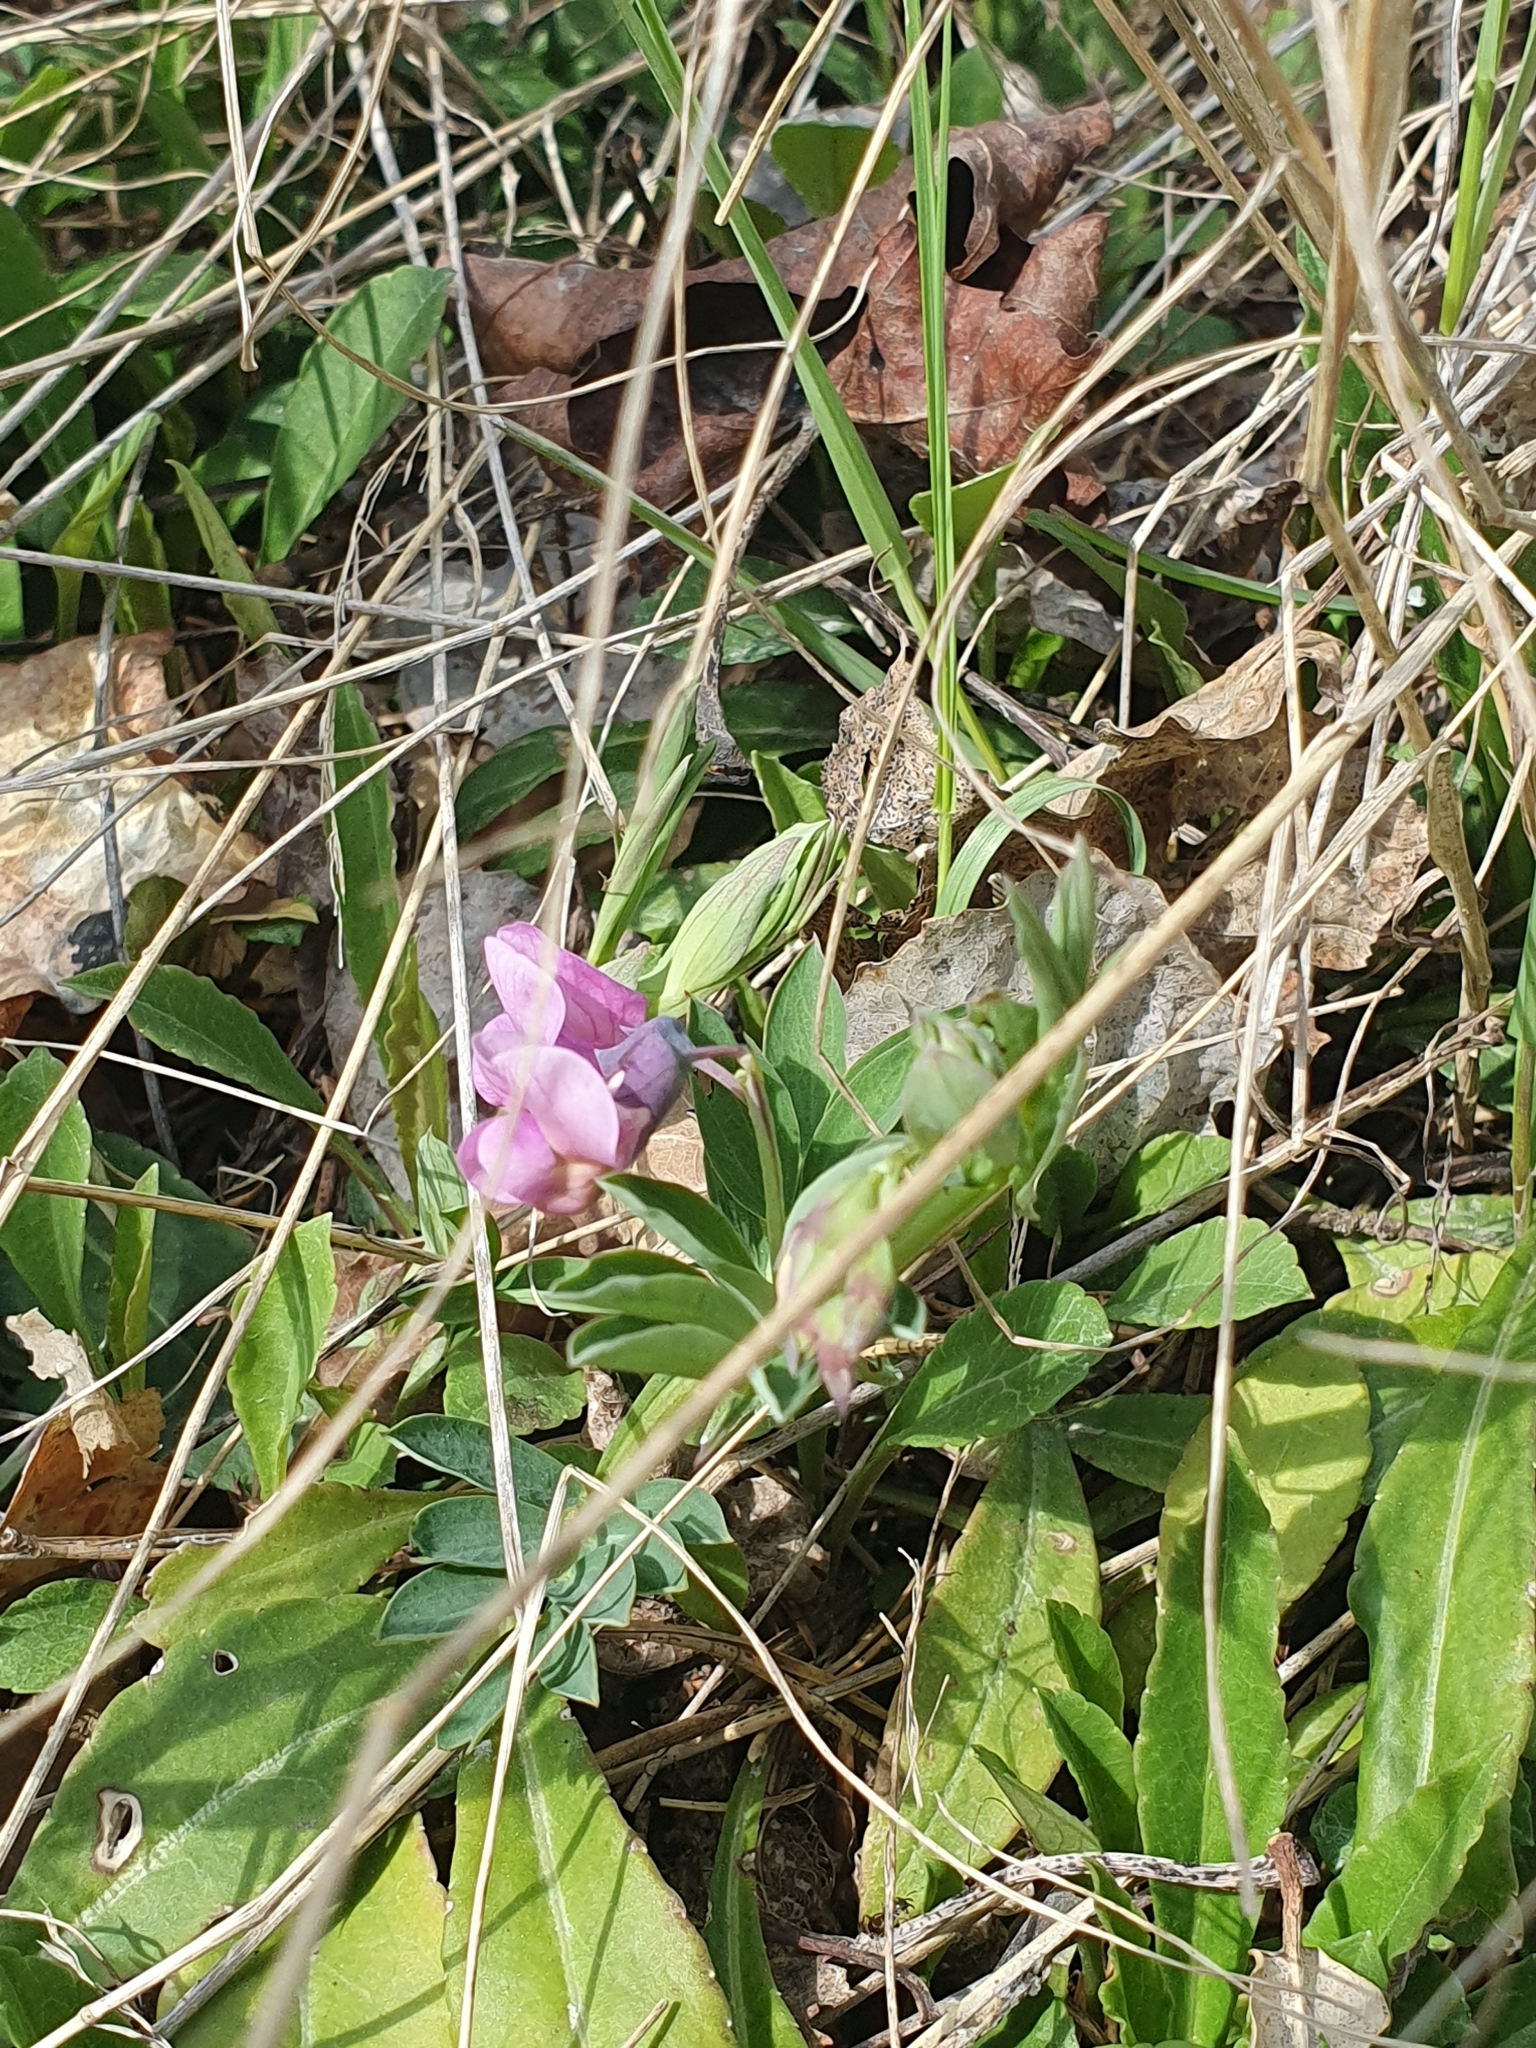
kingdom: Plantae
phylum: Tracheophyta
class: Magnoliopsida
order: Fabales
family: Fabaceae
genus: Lathyrus
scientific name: Lathyrus linifolius
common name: Bitter-vetch
